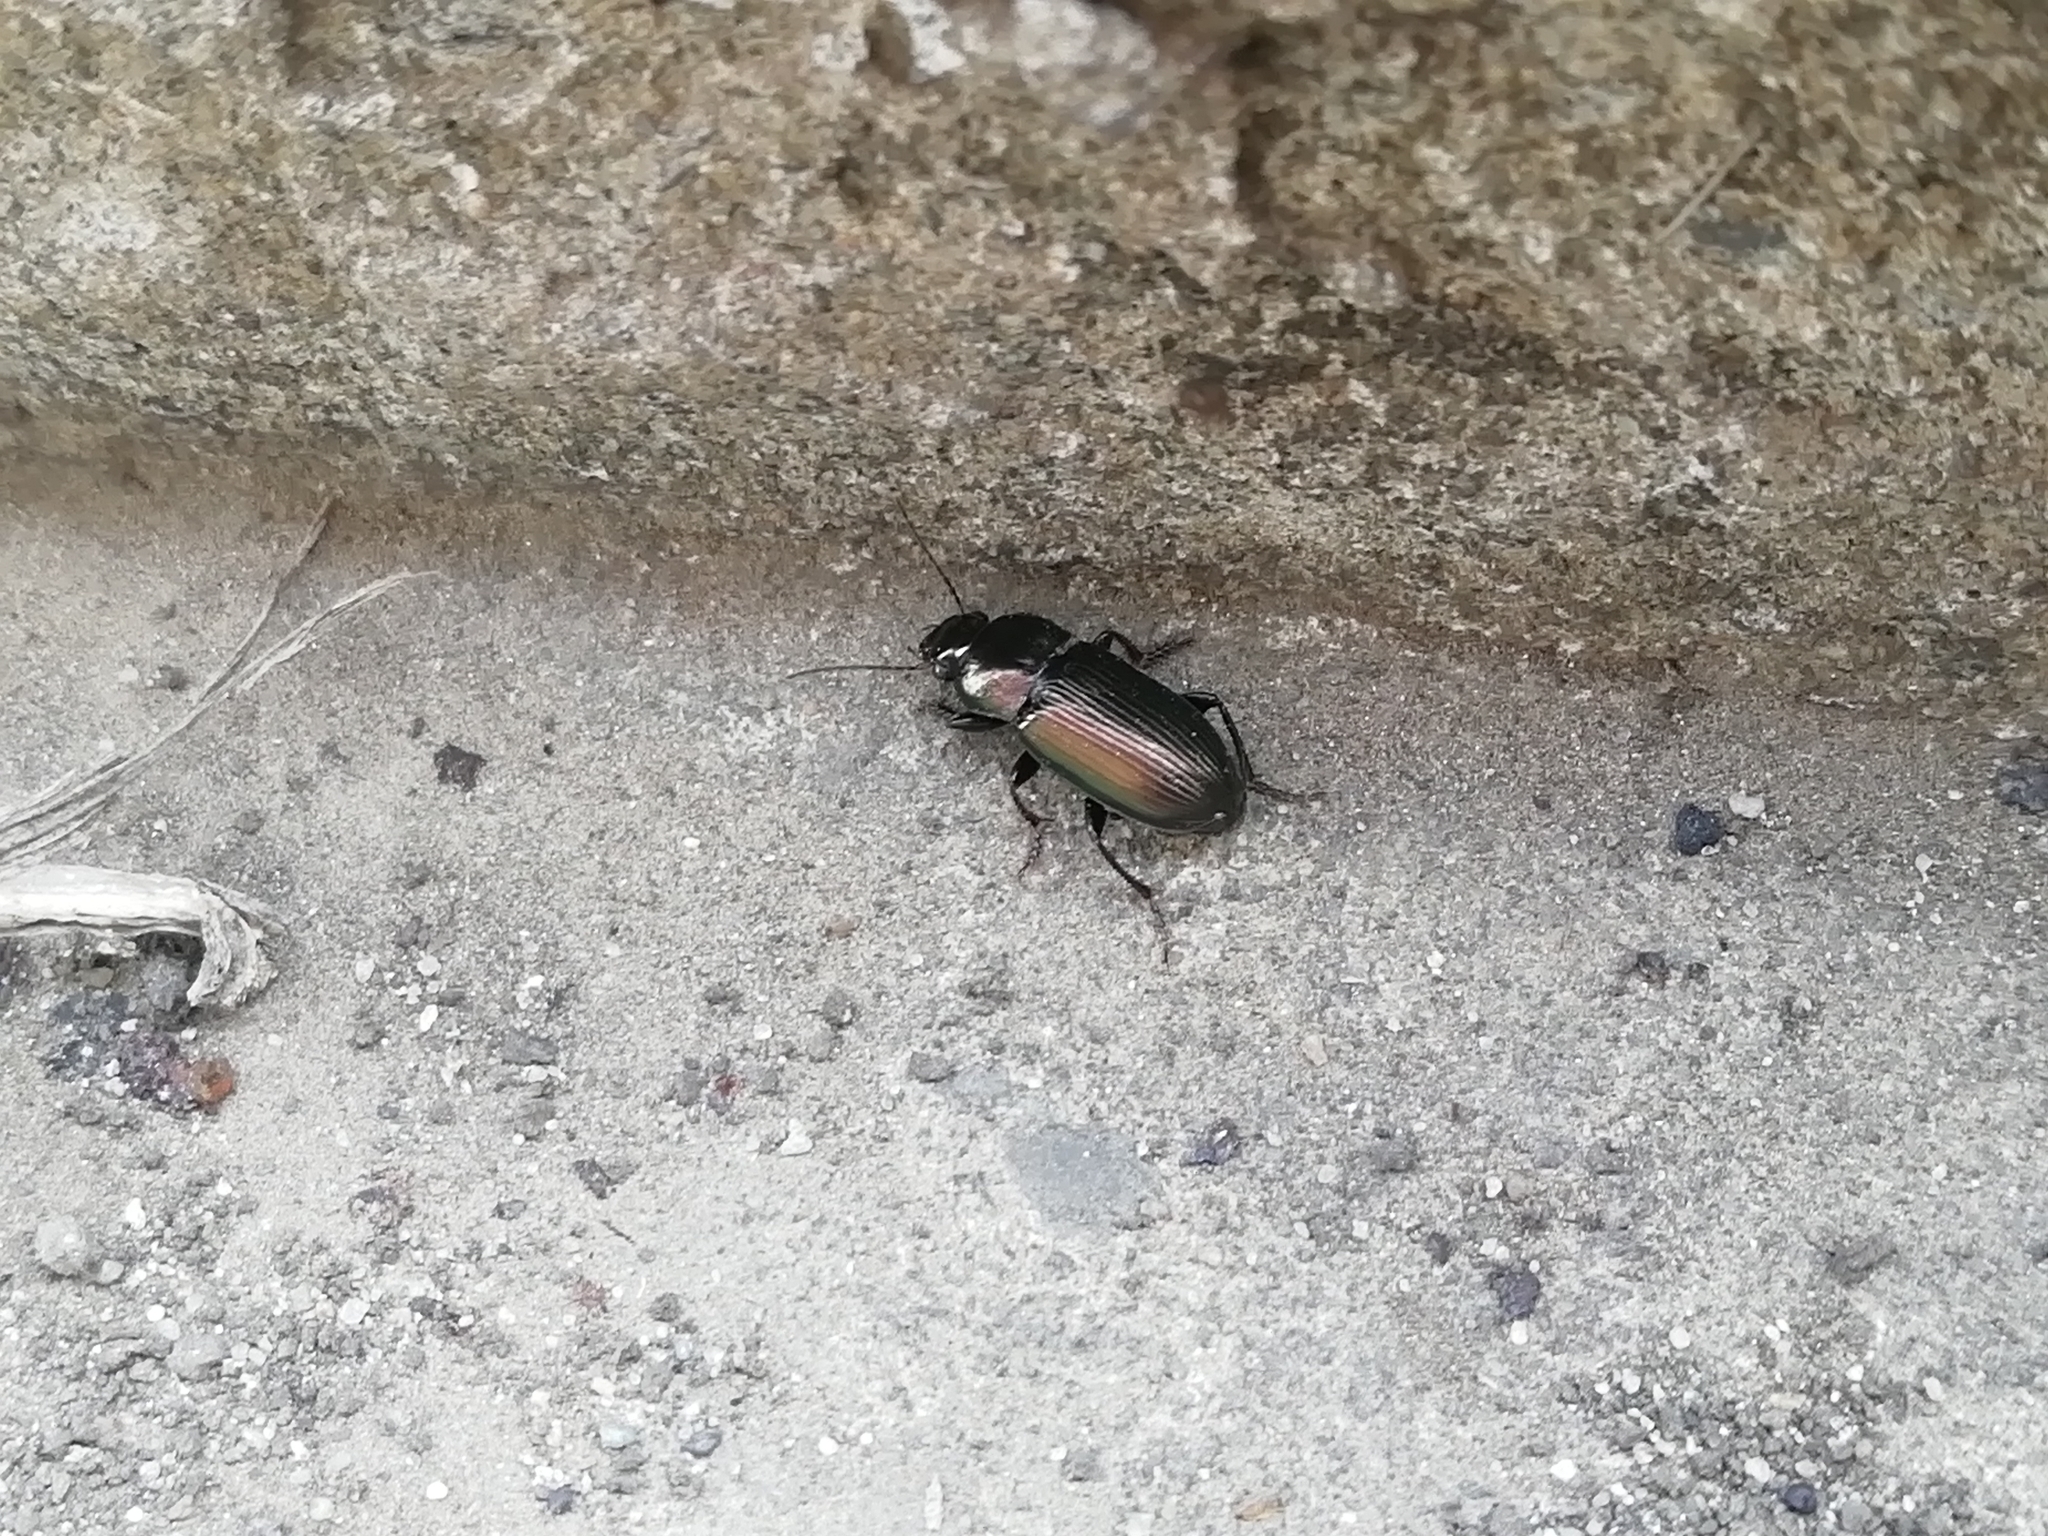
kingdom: Animalia
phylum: Arthropoda
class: Insecta
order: Coleoptera
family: Carabidae
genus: Harpalus
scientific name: Harpalus distinguendus
